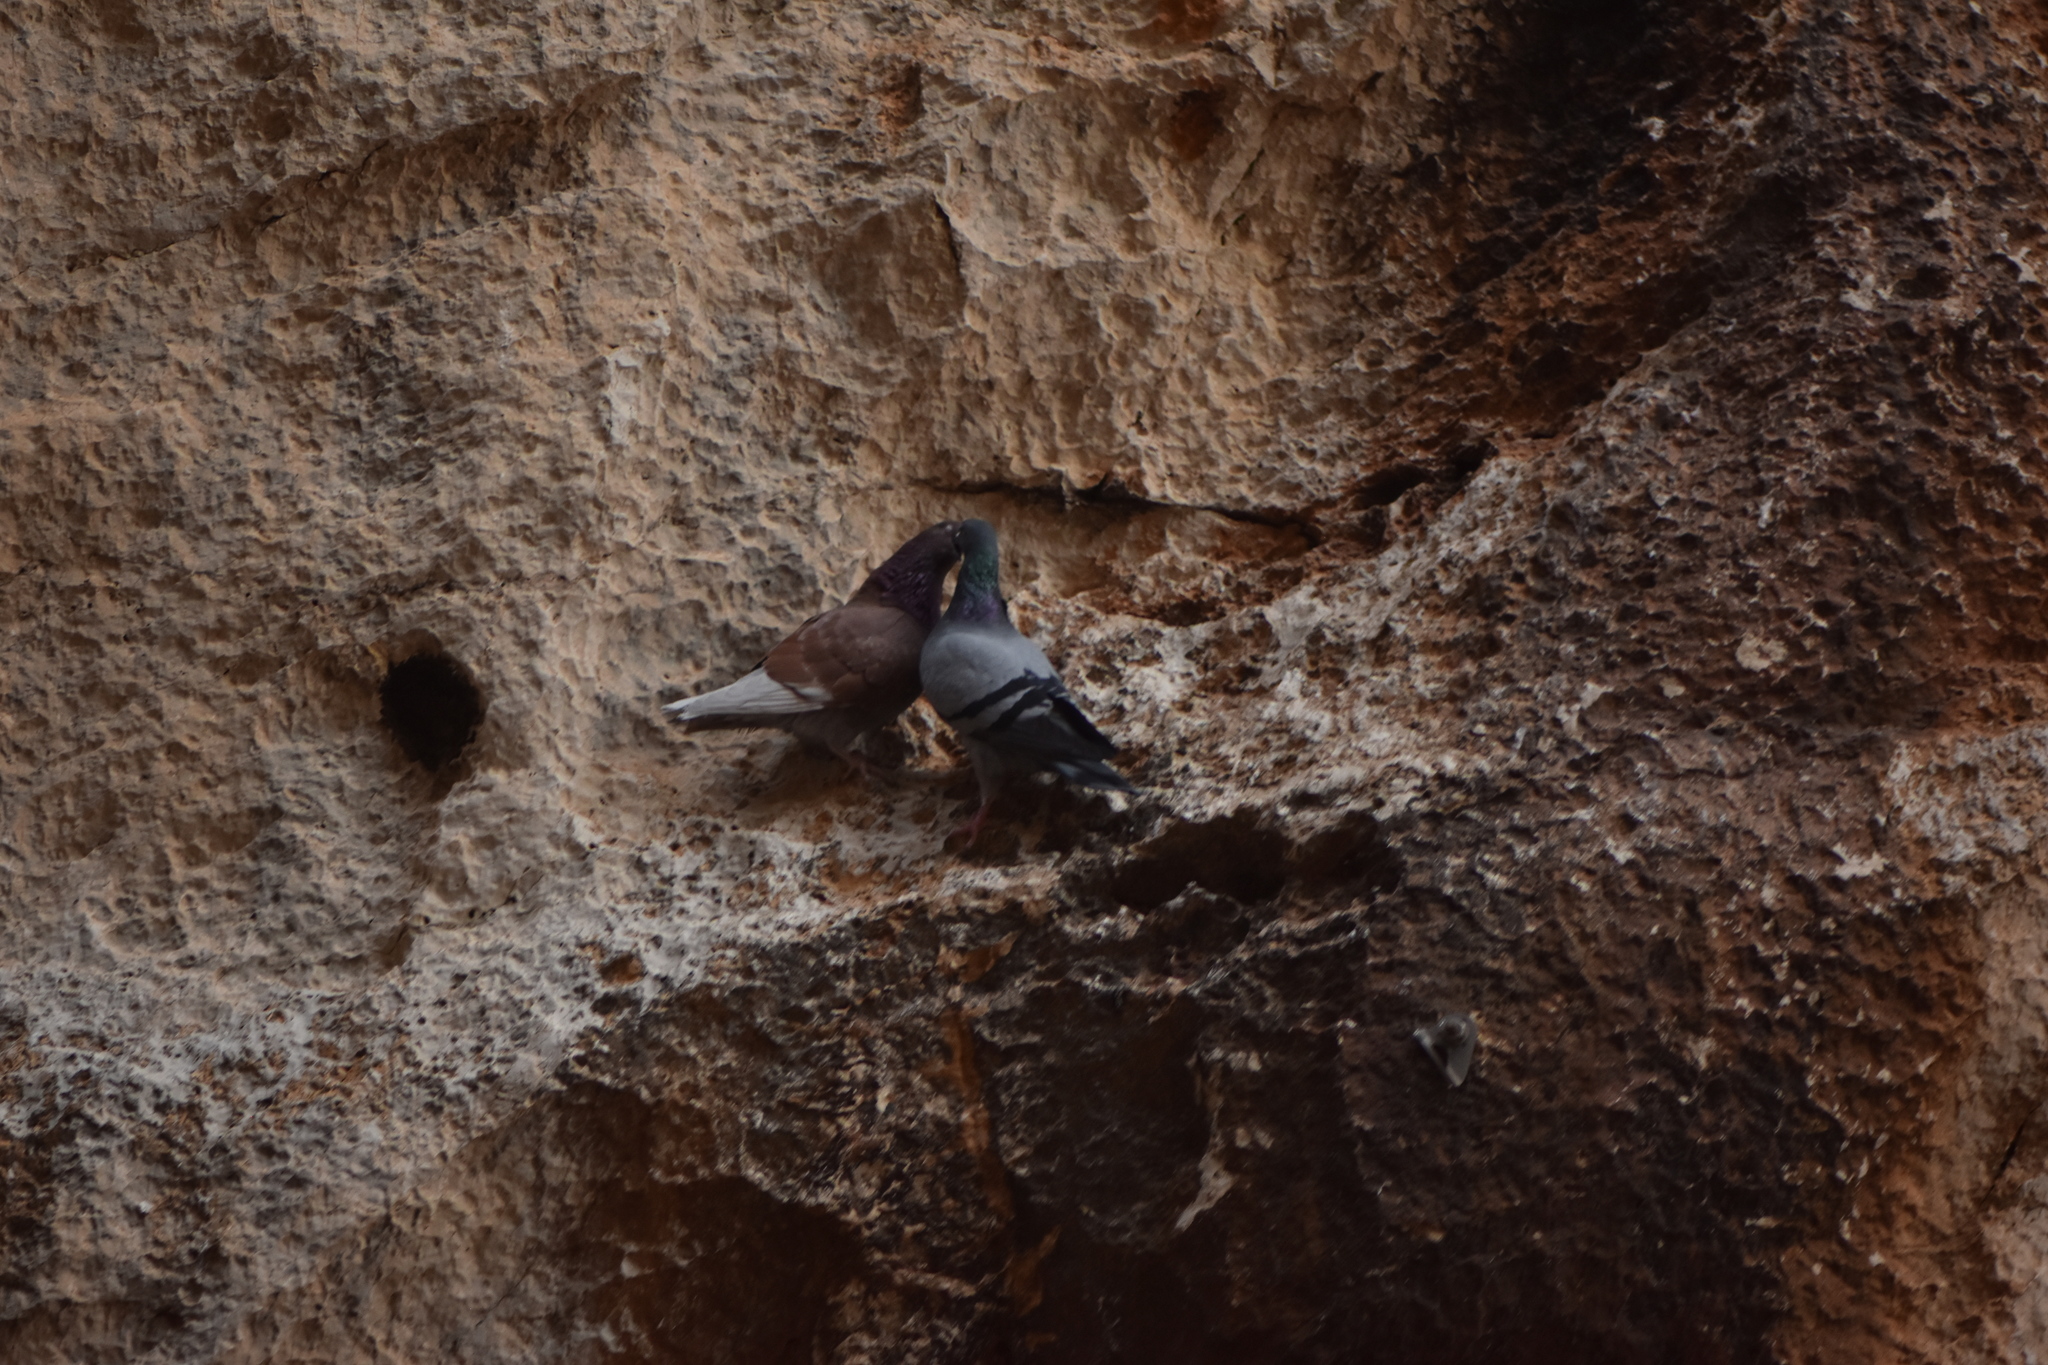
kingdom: Animalia
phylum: Chordata
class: Aves
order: Columbiformes
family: Columbidae
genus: Columba
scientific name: Columba livia
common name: Rock pigeon
